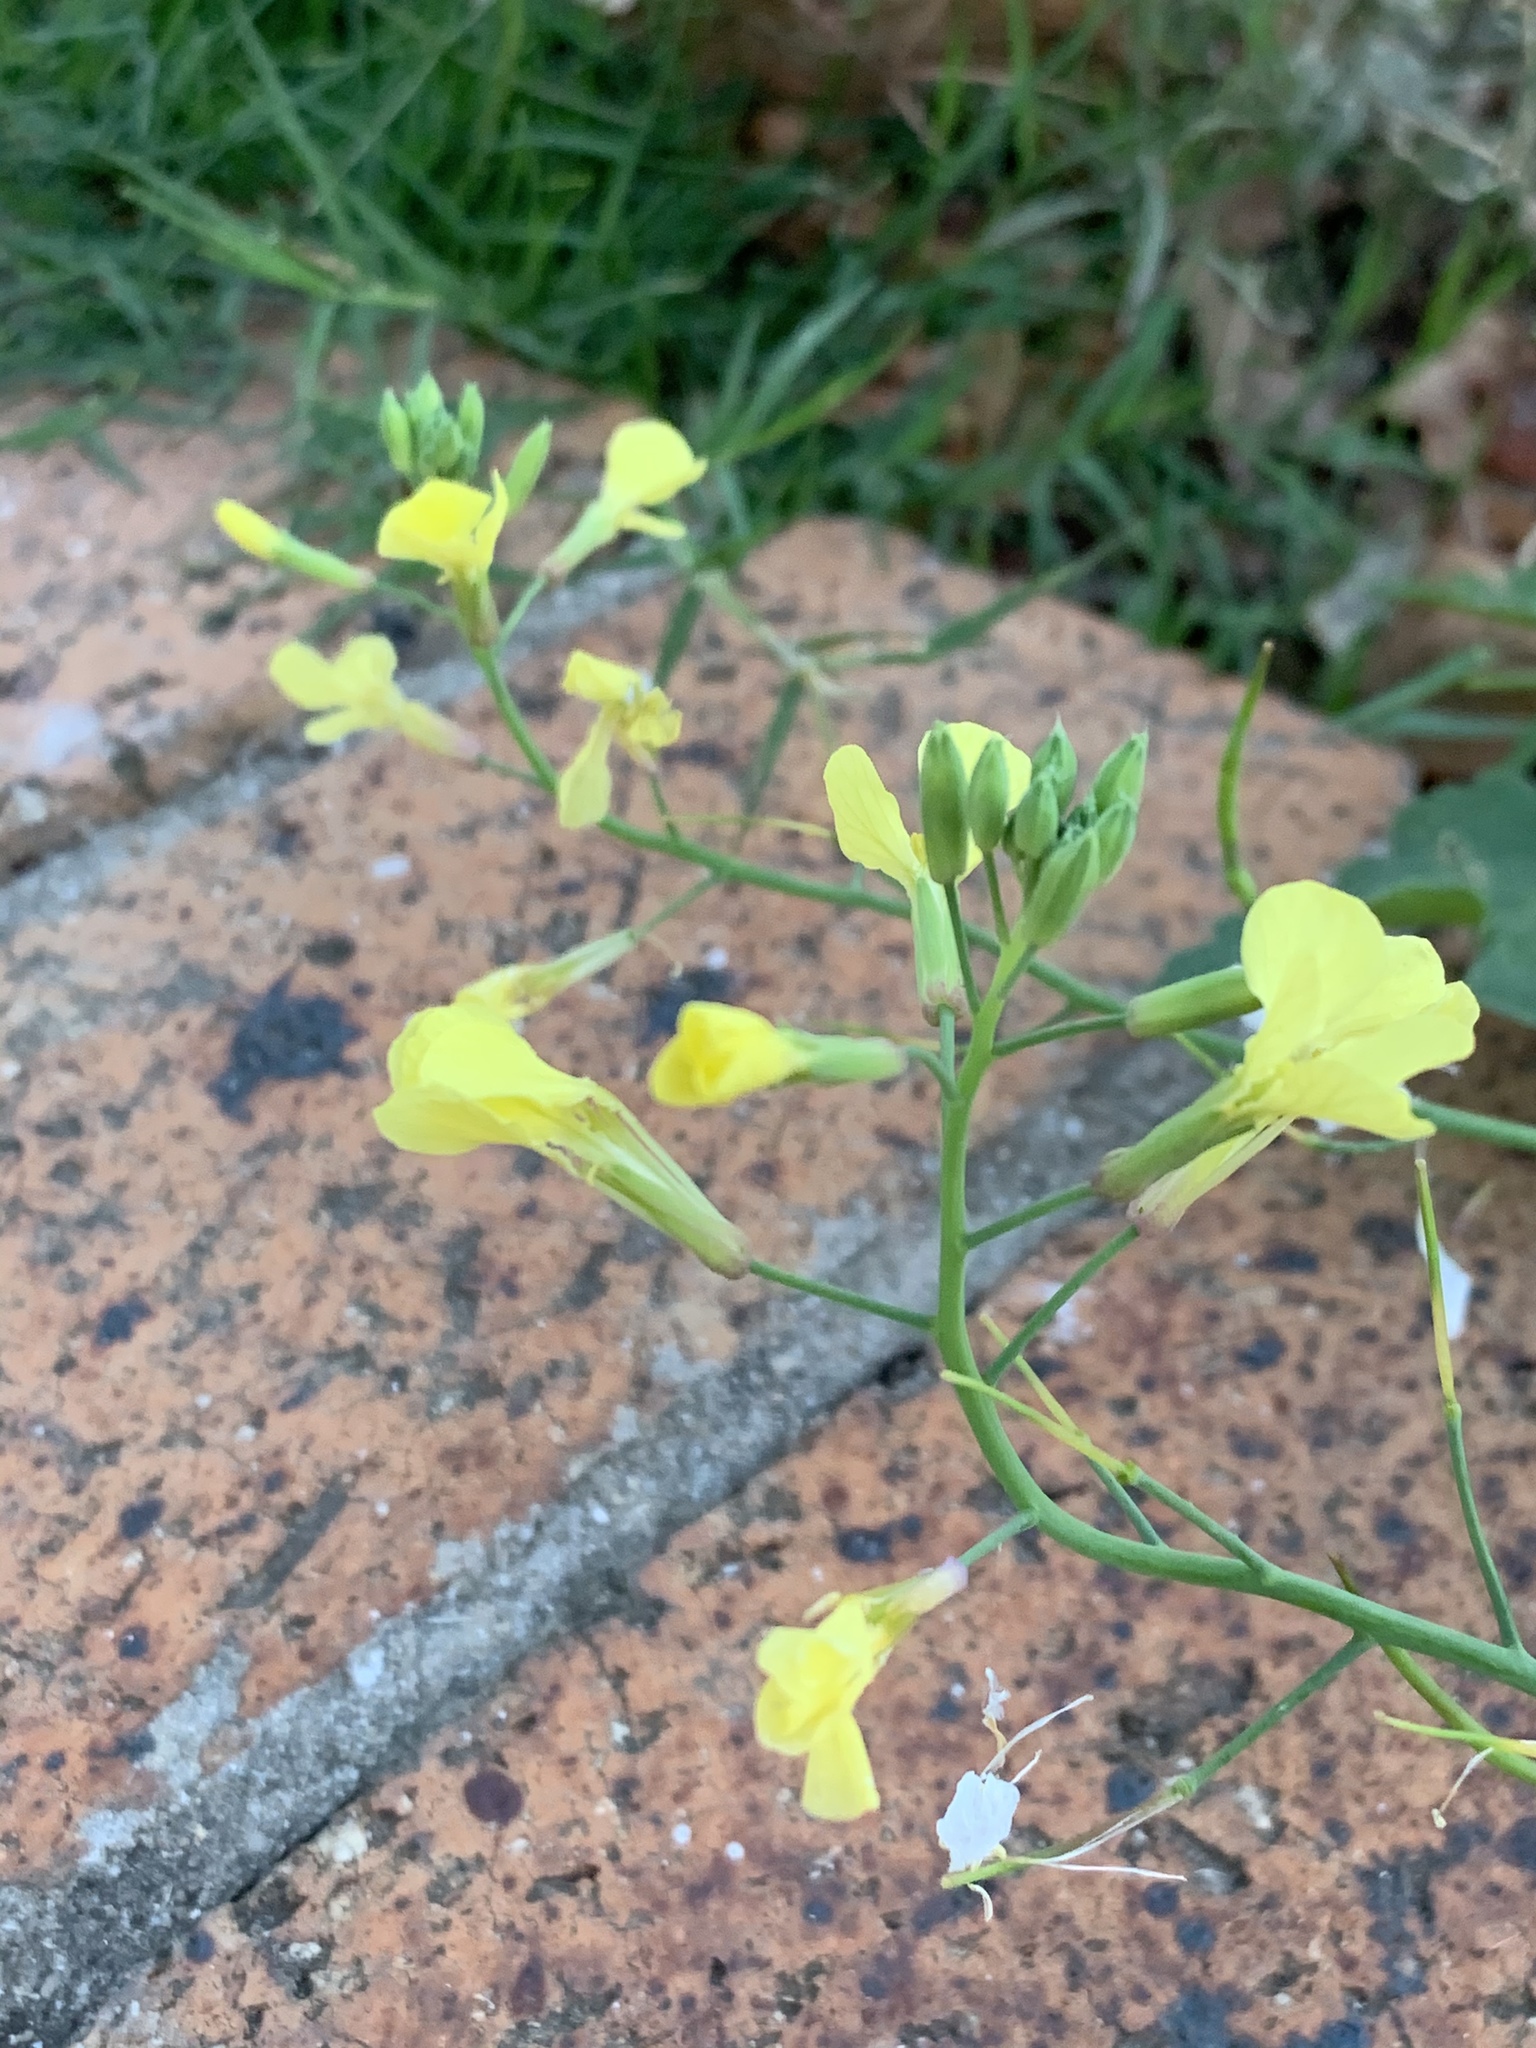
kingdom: Plantae
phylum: Tracheophyta
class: Magnoliopsida
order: Brassicales
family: Brassicaceae
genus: Raphanus
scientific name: Raphanus raphanistrum
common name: Wild radish
